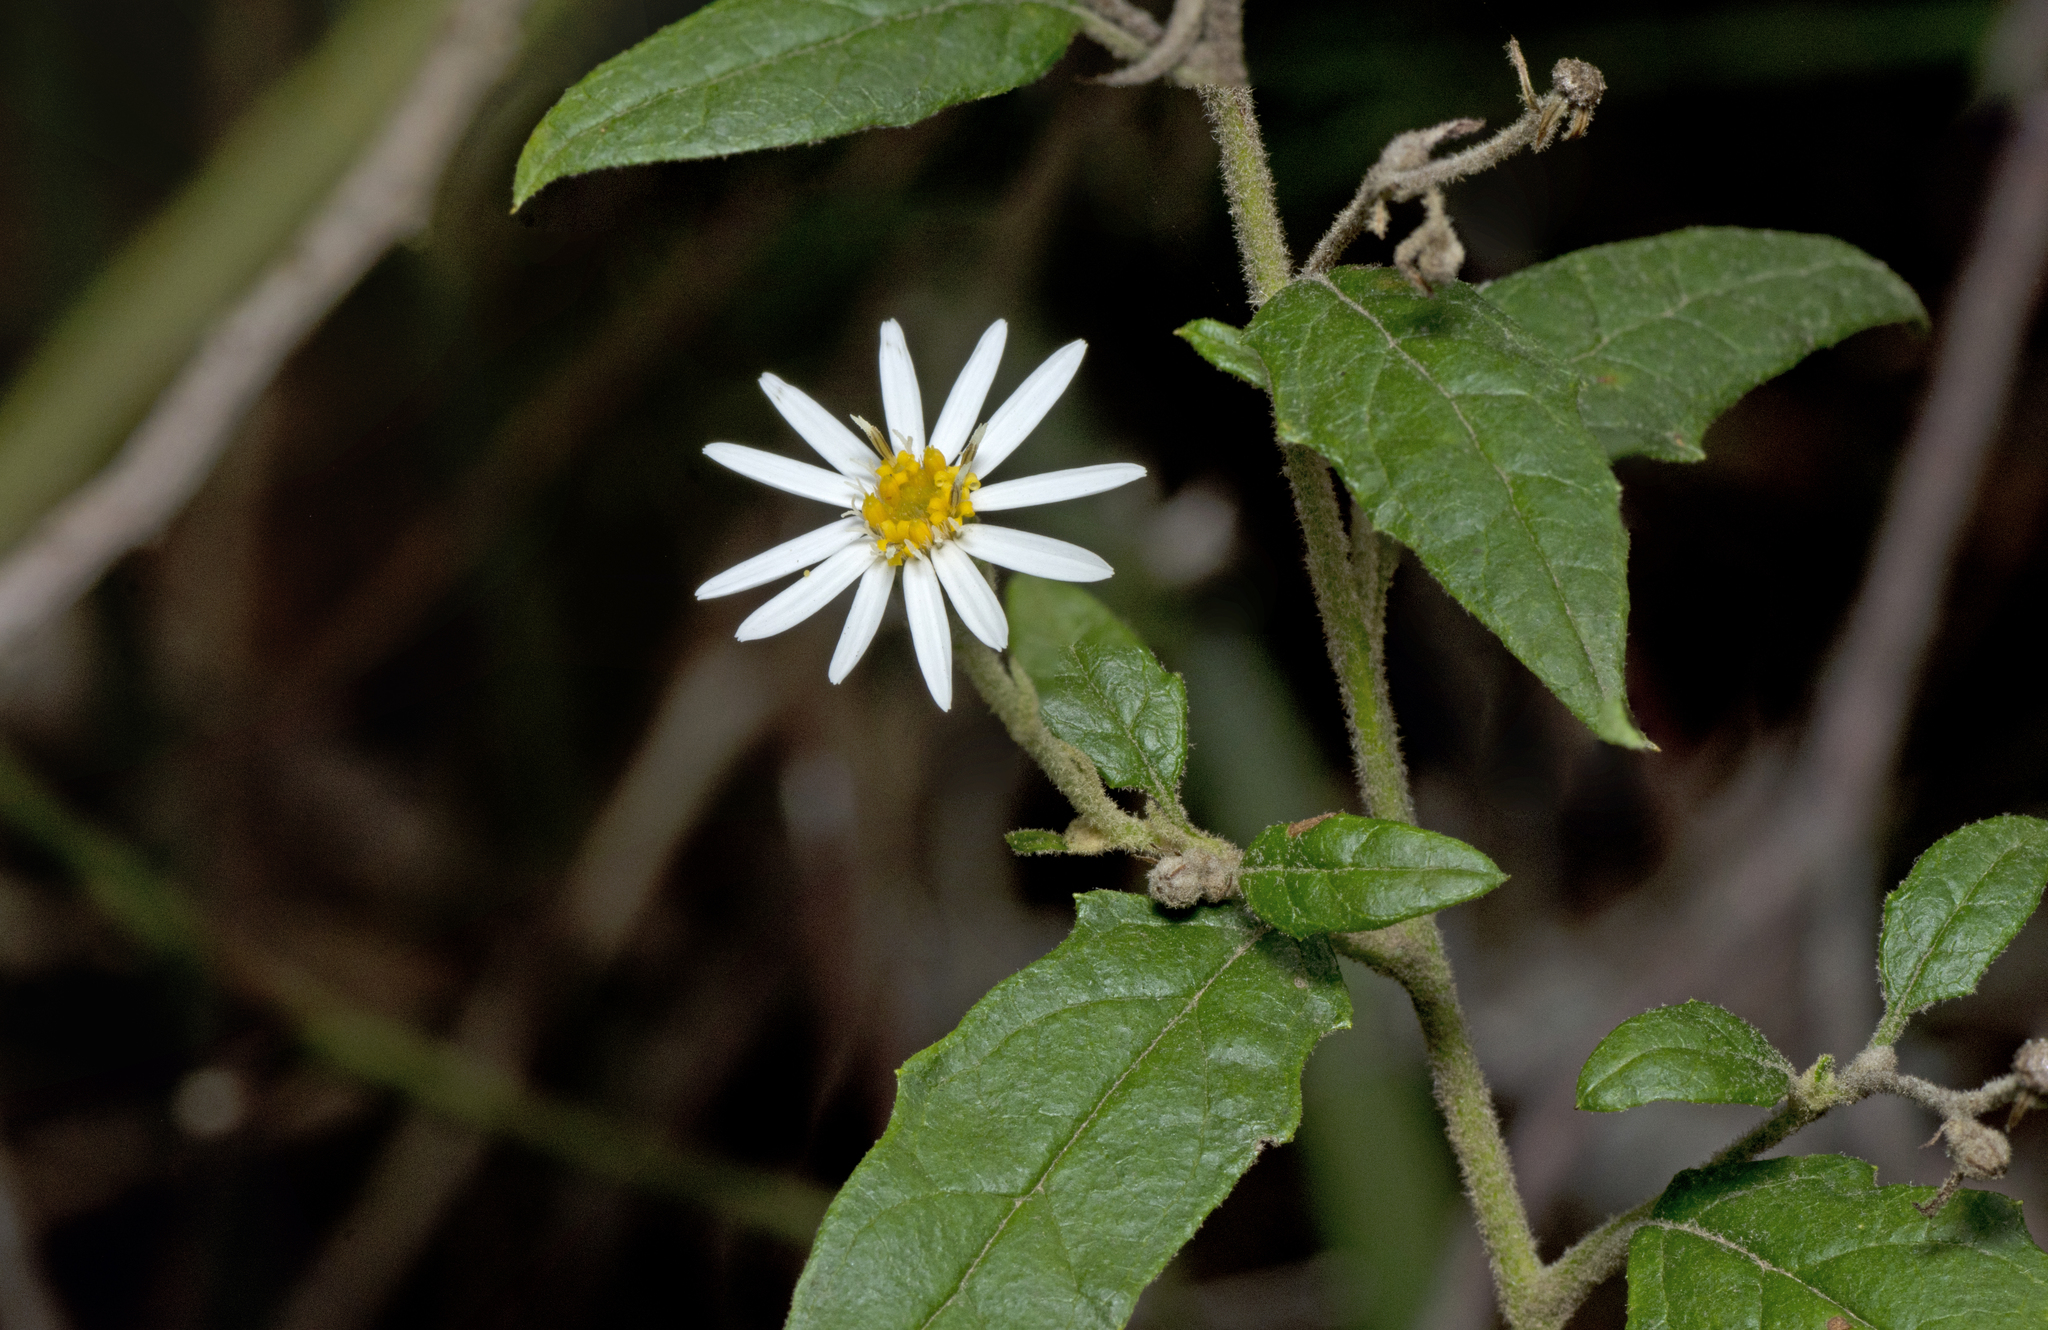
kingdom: Plantae
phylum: Tracheophyta
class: Magnoliopsida
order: Asterales
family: Asteraceae
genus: Olearia
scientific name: Olearia nernstii
